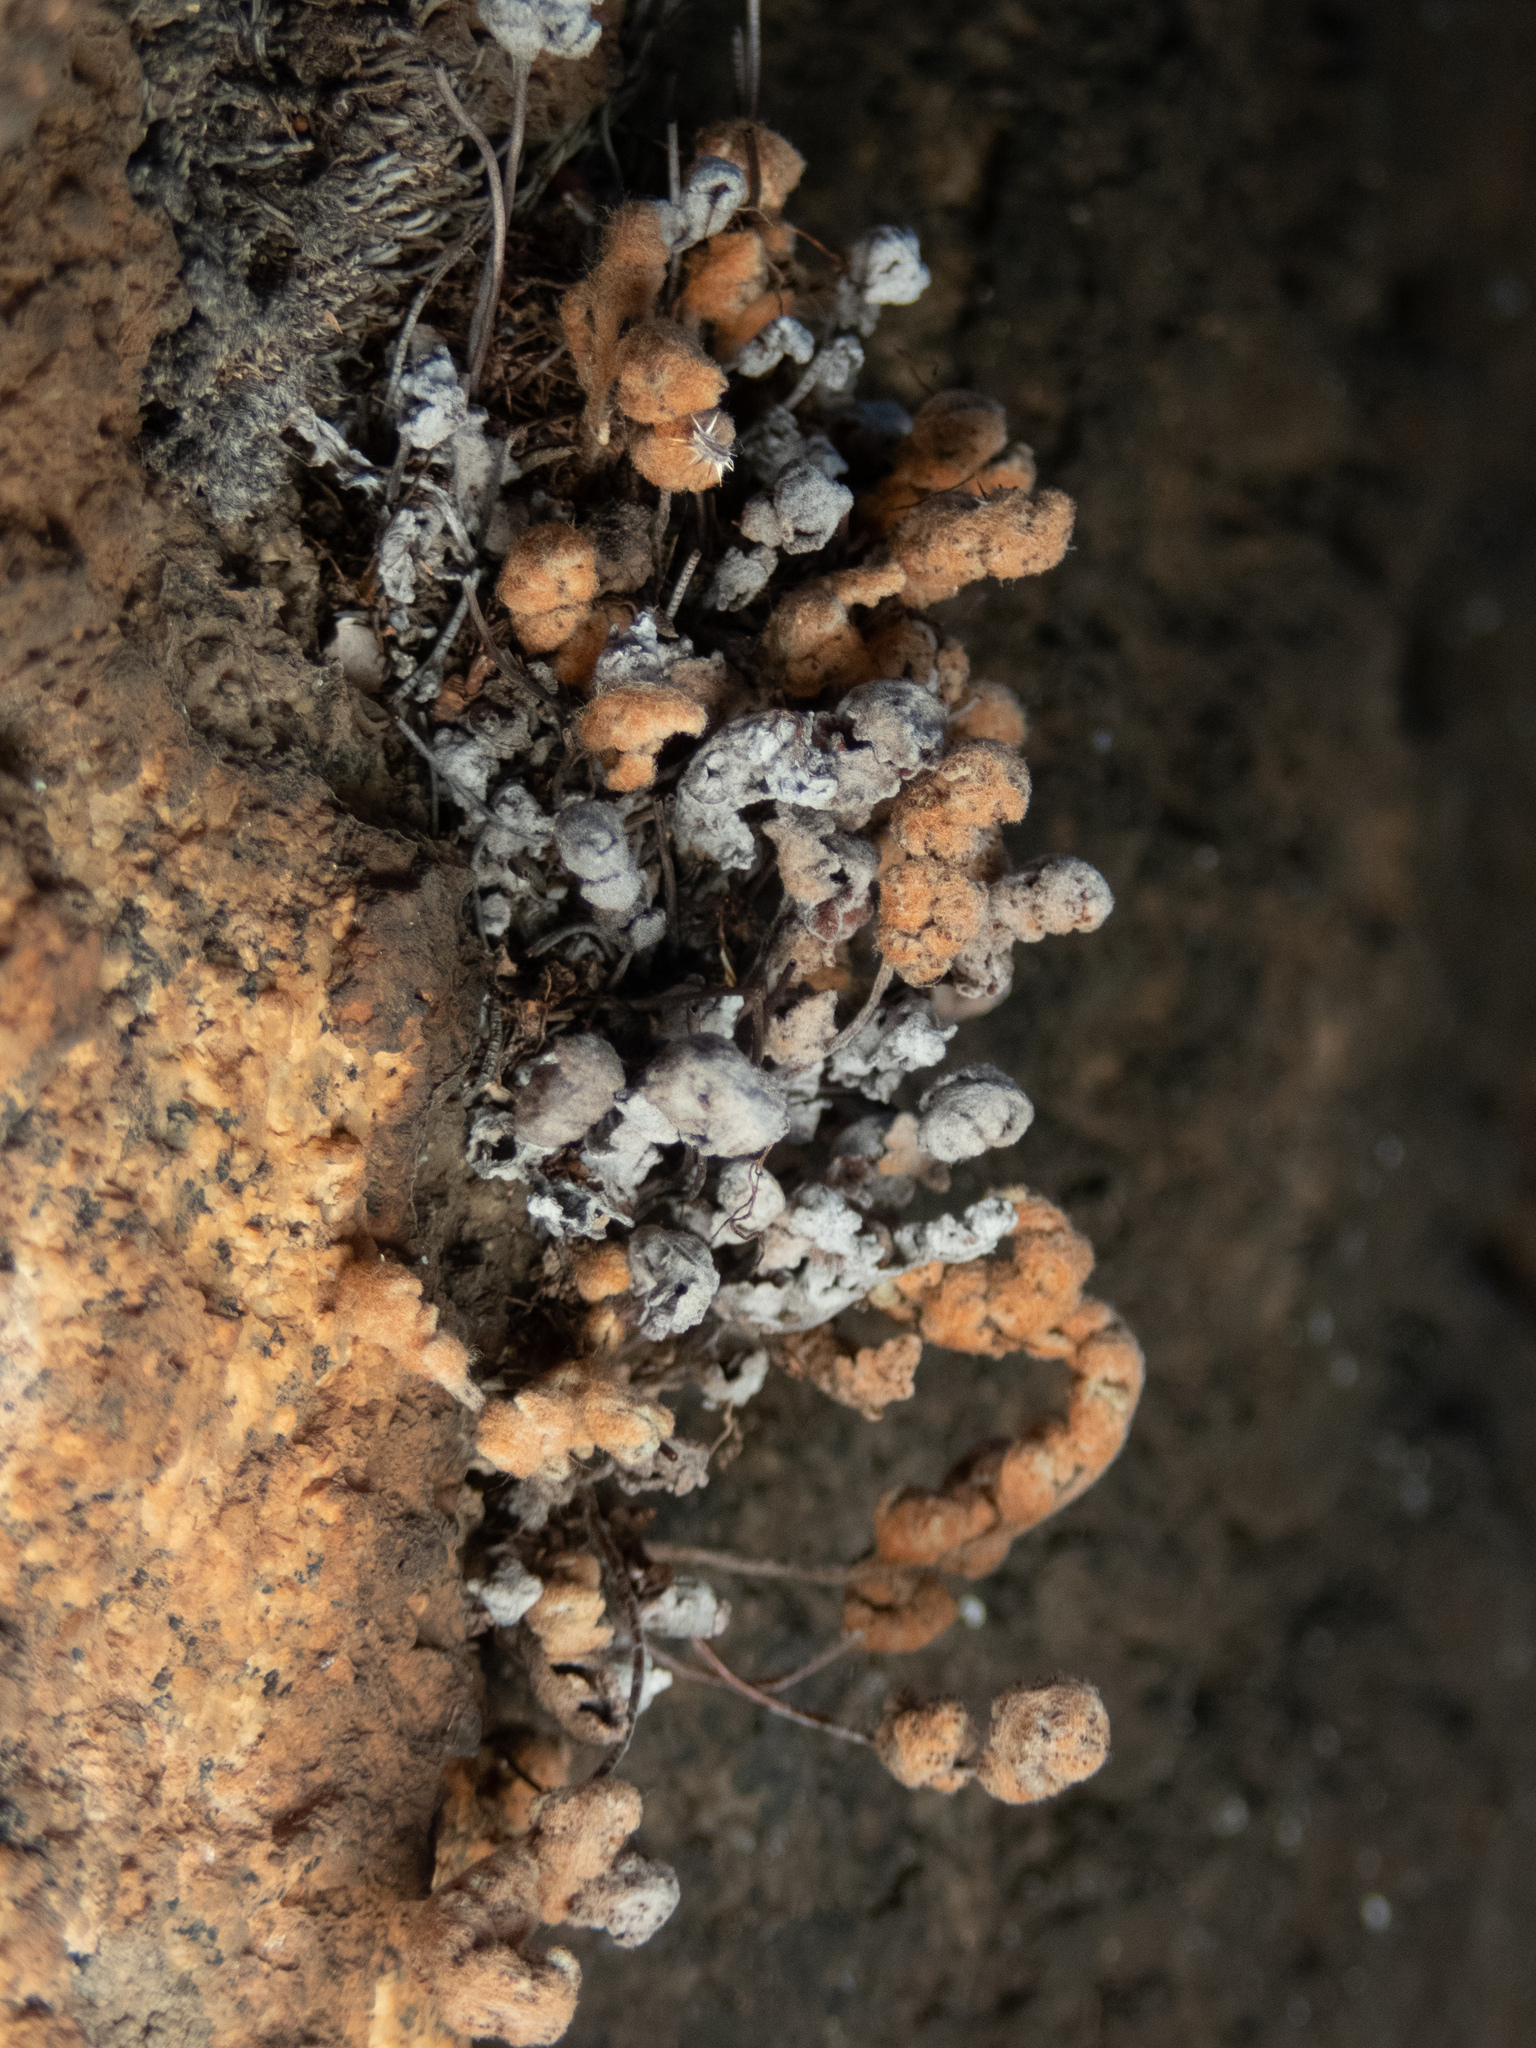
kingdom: Plantae
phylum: Tracheophyta
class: Polypodiopsida
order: Polypodiales
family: Pteridaceae
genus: Myriopteris
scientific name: Myriopteris newberryi
